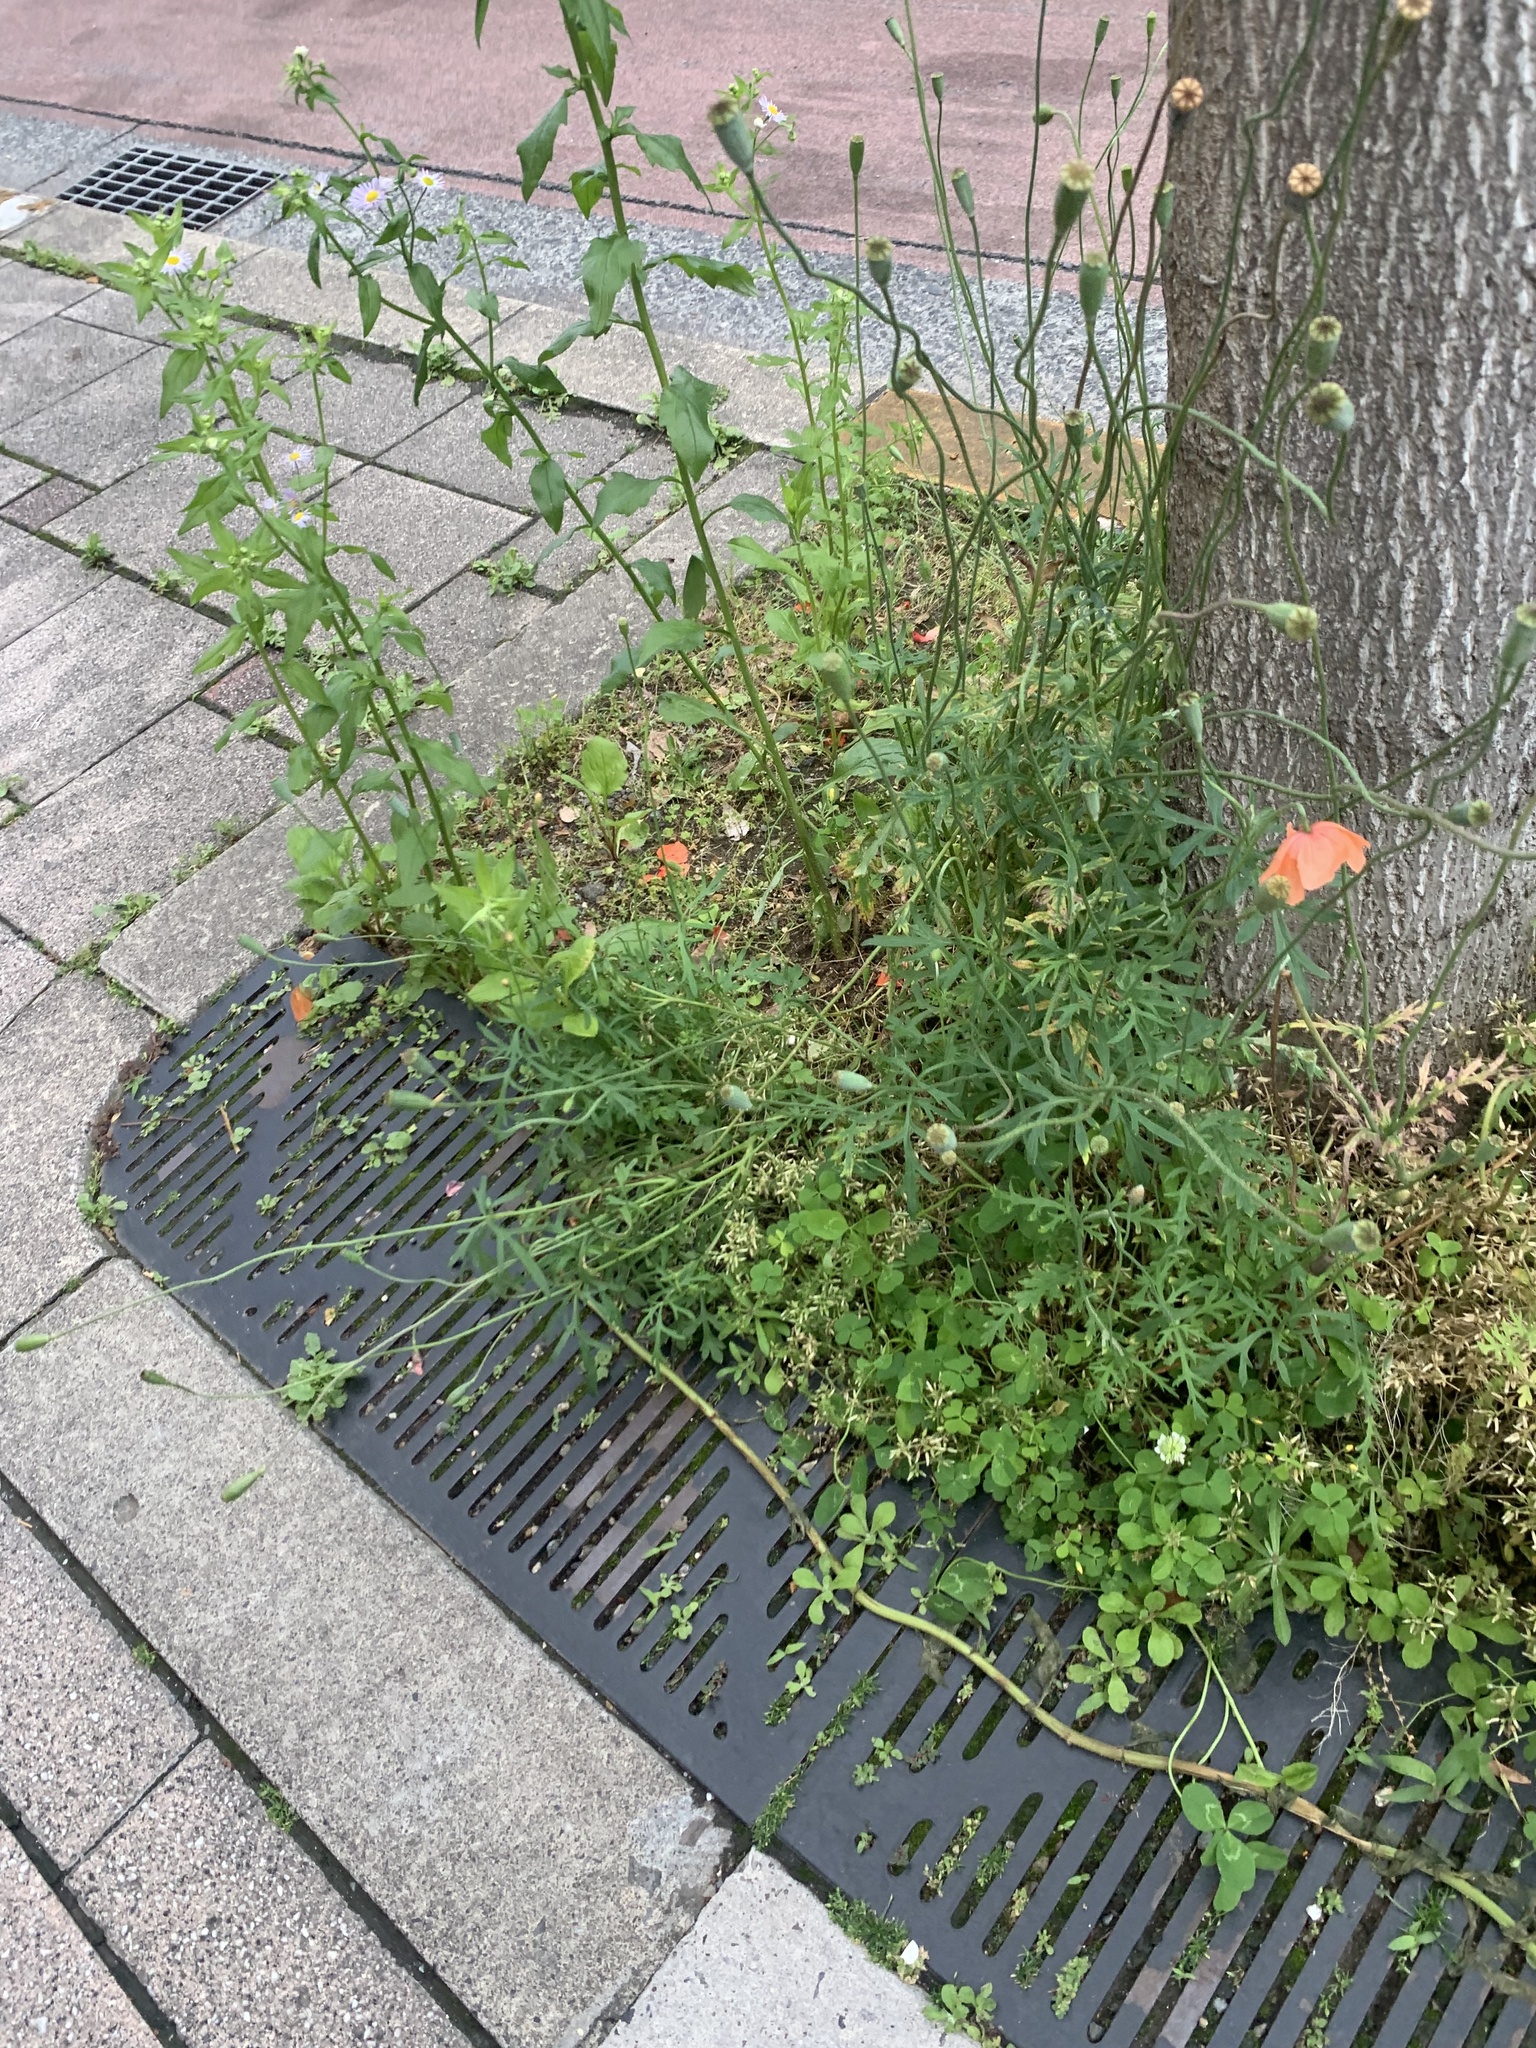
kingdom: Plantae
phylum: Tracheophyta
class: Magnoliopsida
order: Ranunculales
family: Papaveraceae
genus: Papaver
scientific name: Papaver dubium
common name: Long-headed poppy
